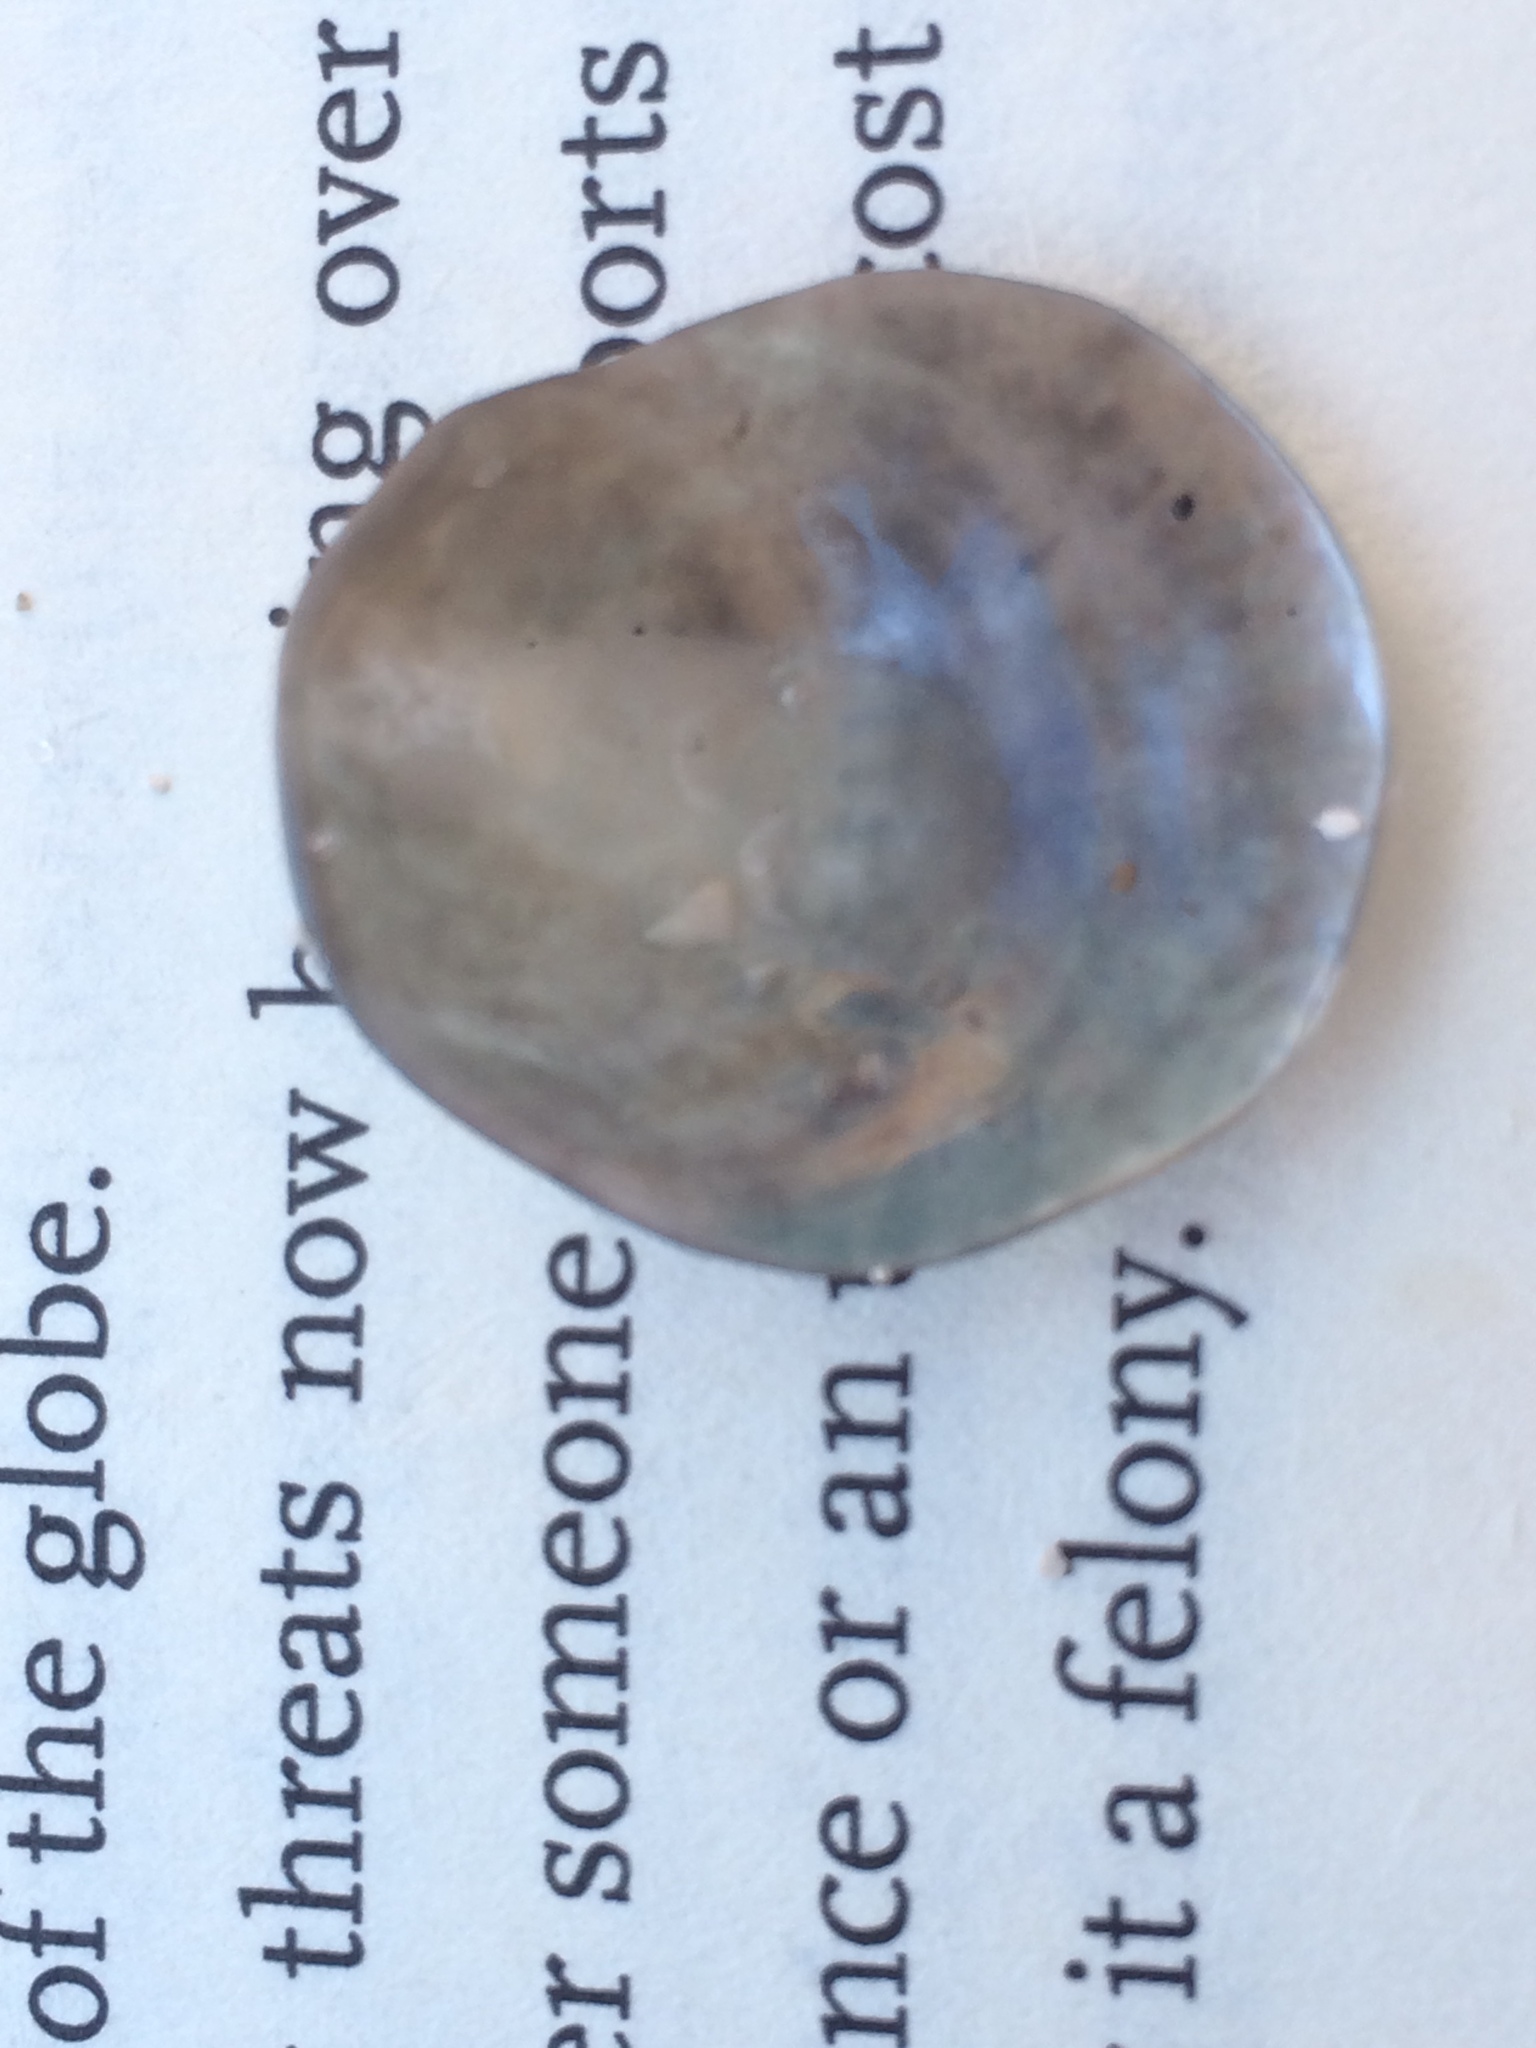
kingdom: Animalia
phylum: Mollusca
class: Bivalvia
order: Pectinida
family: Anomiidae
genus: Anomia
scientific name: Anomia simplex
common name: Common jingle shell
